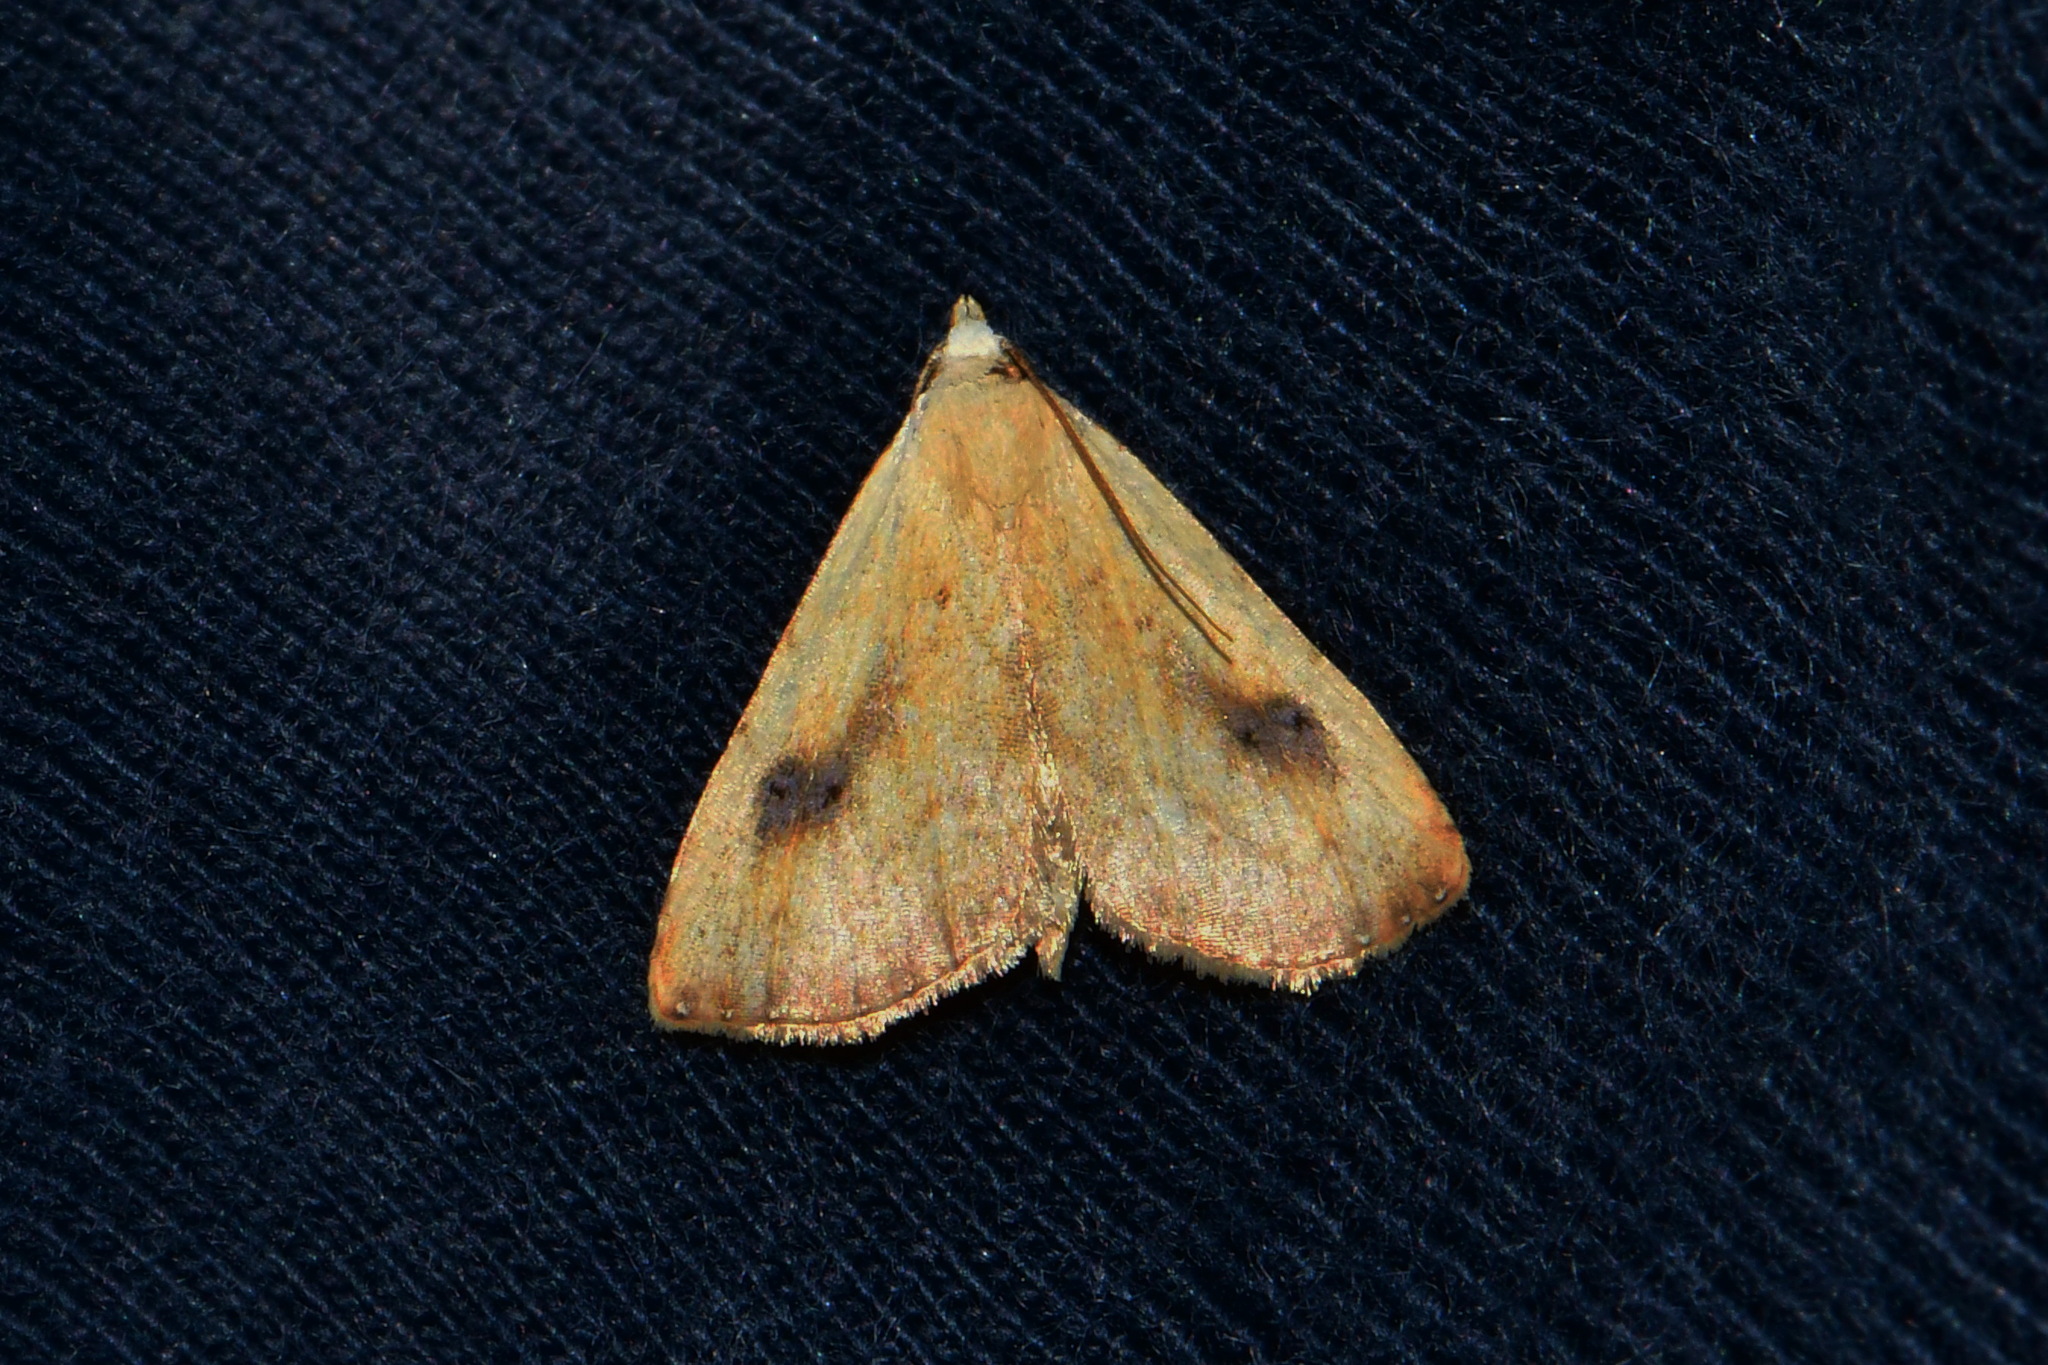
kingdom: Animalia
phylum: Arthropoda
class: Insecta
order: Lepidoptera
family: Erebidae
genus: Rivula
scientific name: Rivula sericealis
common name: Straw dot
